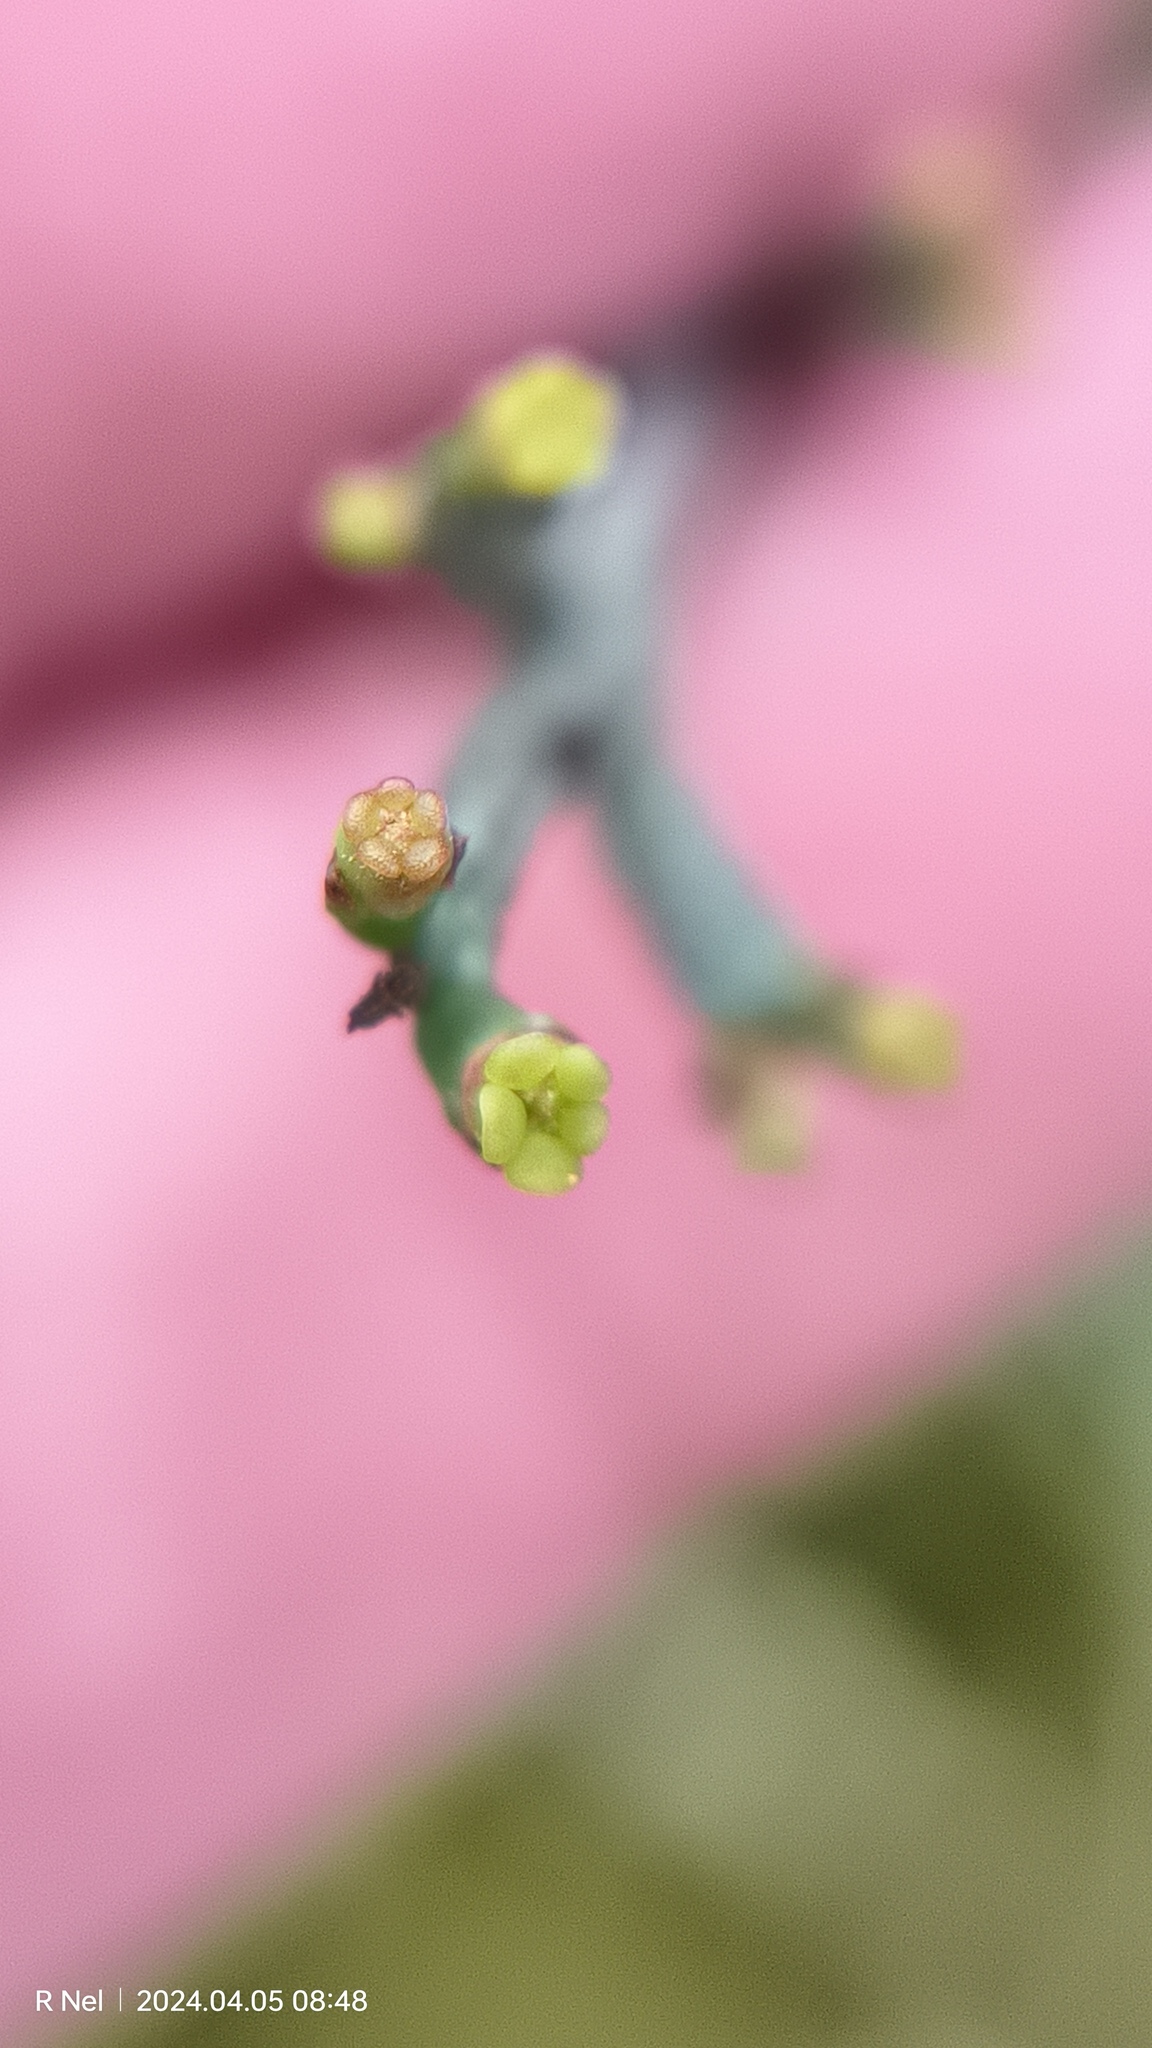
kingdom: Plantae
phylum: Tracheophyta
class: Magnoliopsida
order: Malpighiales
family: Euphorbiaceae
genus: Euphorbia
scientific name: Euphorbia rhombifolia
